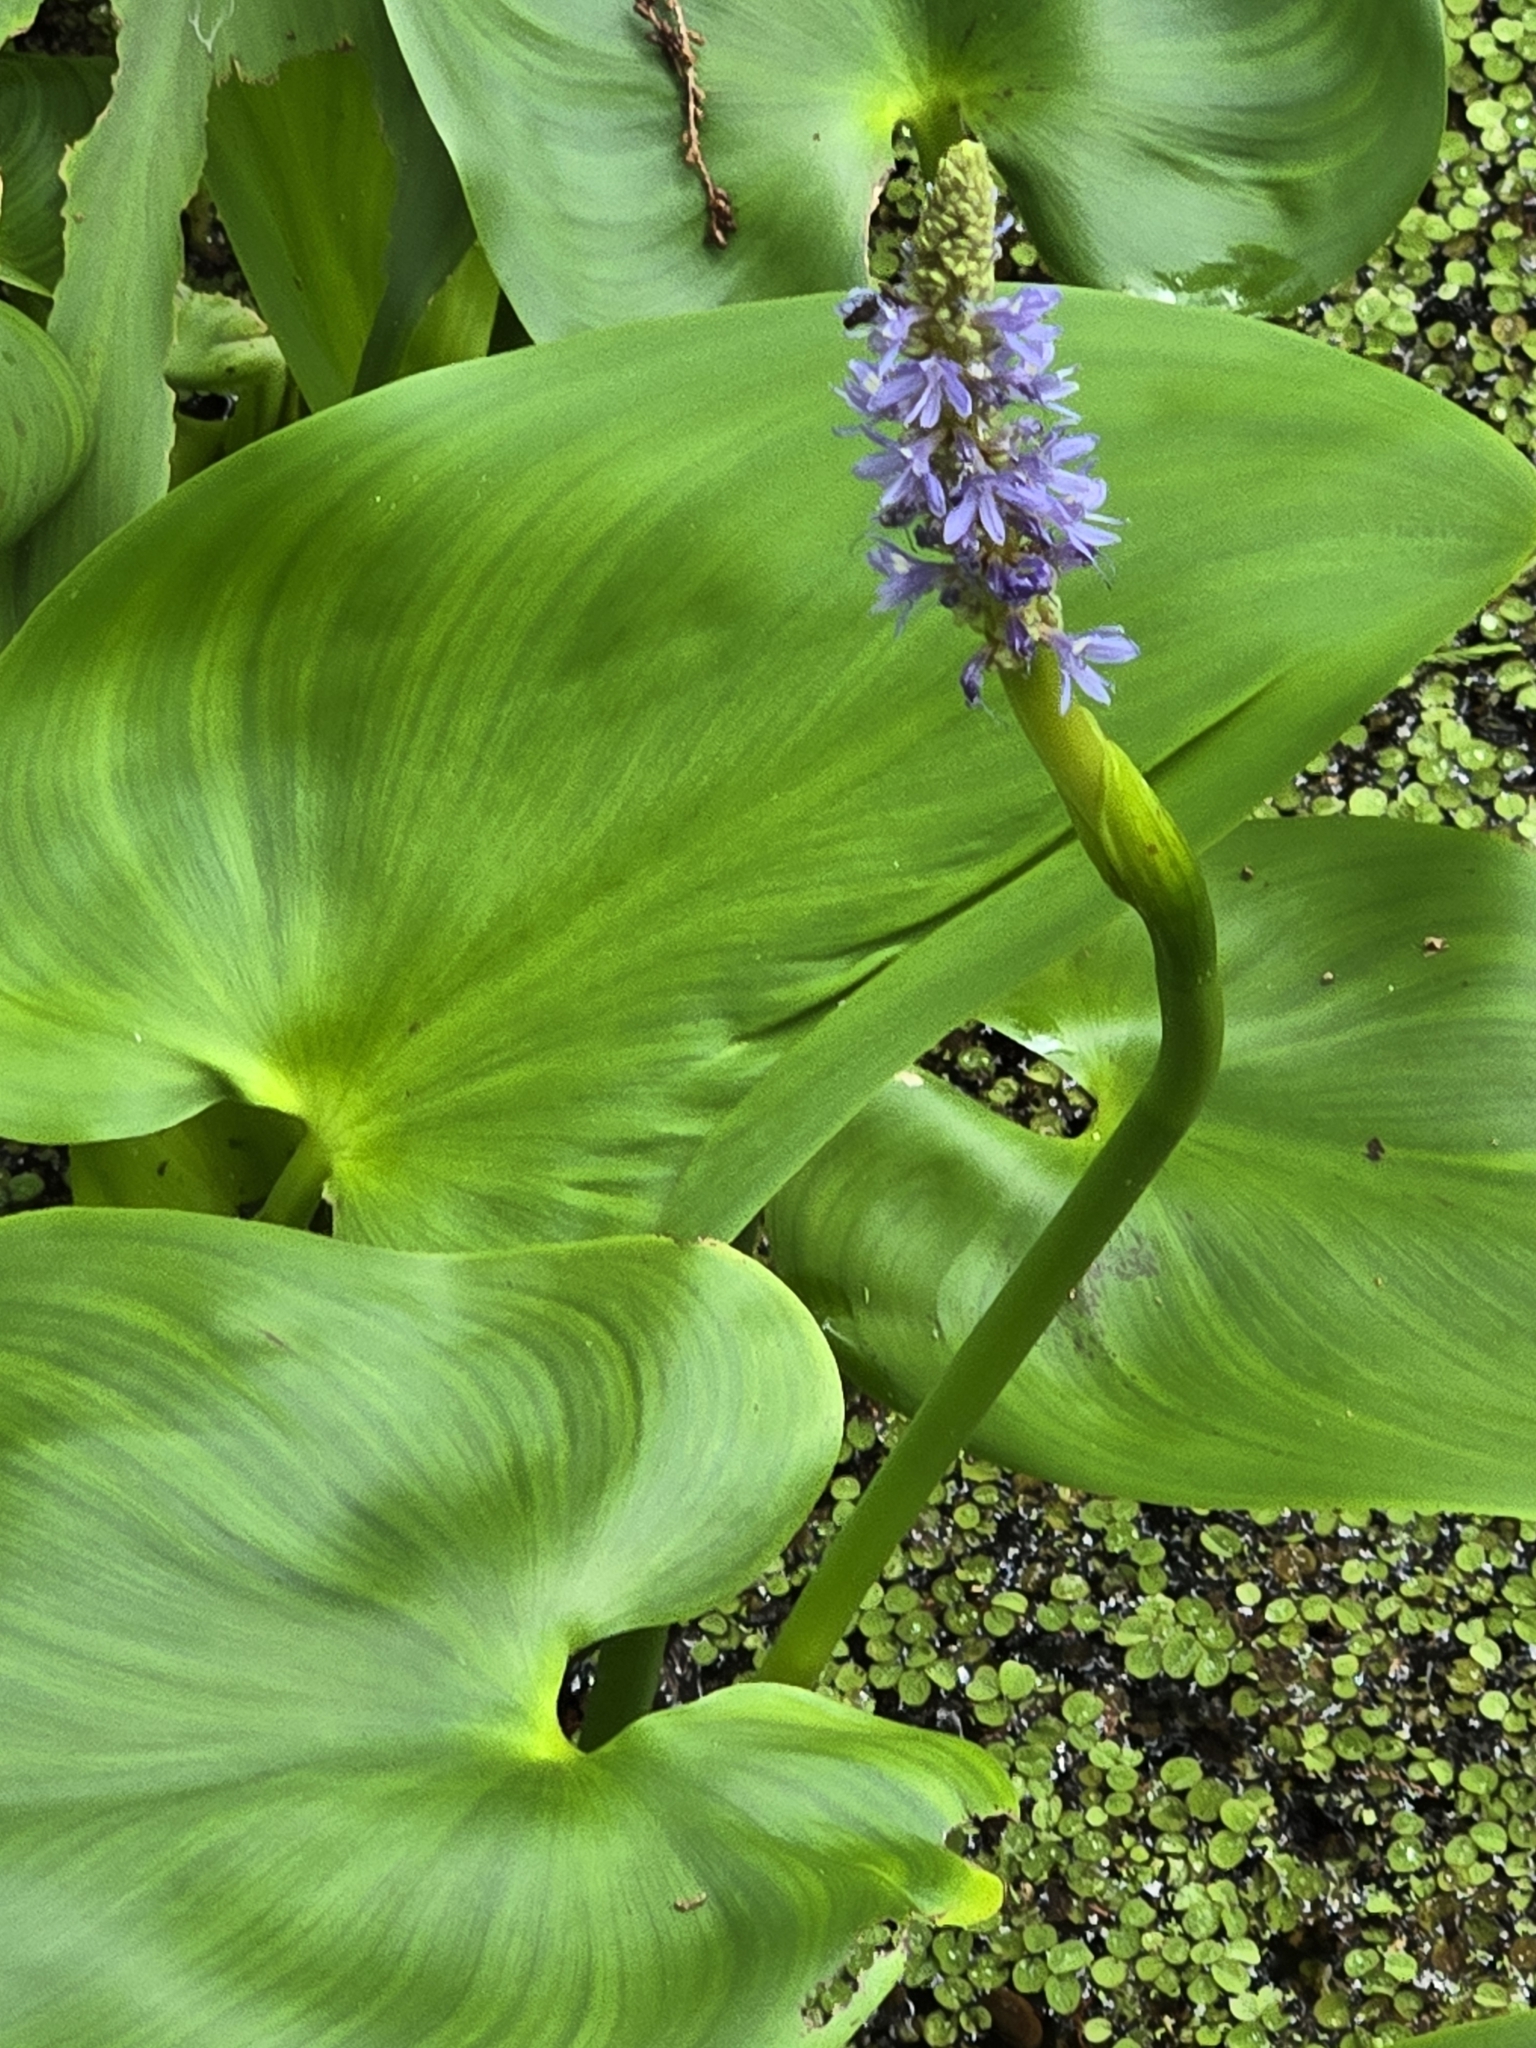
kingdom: Plantae
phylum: Tracheophyta
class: Liliopsida
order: Commelinales
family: Pontederiaceae
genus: Pontederia
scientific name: Pontederia cordata
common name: Pickerelweed
